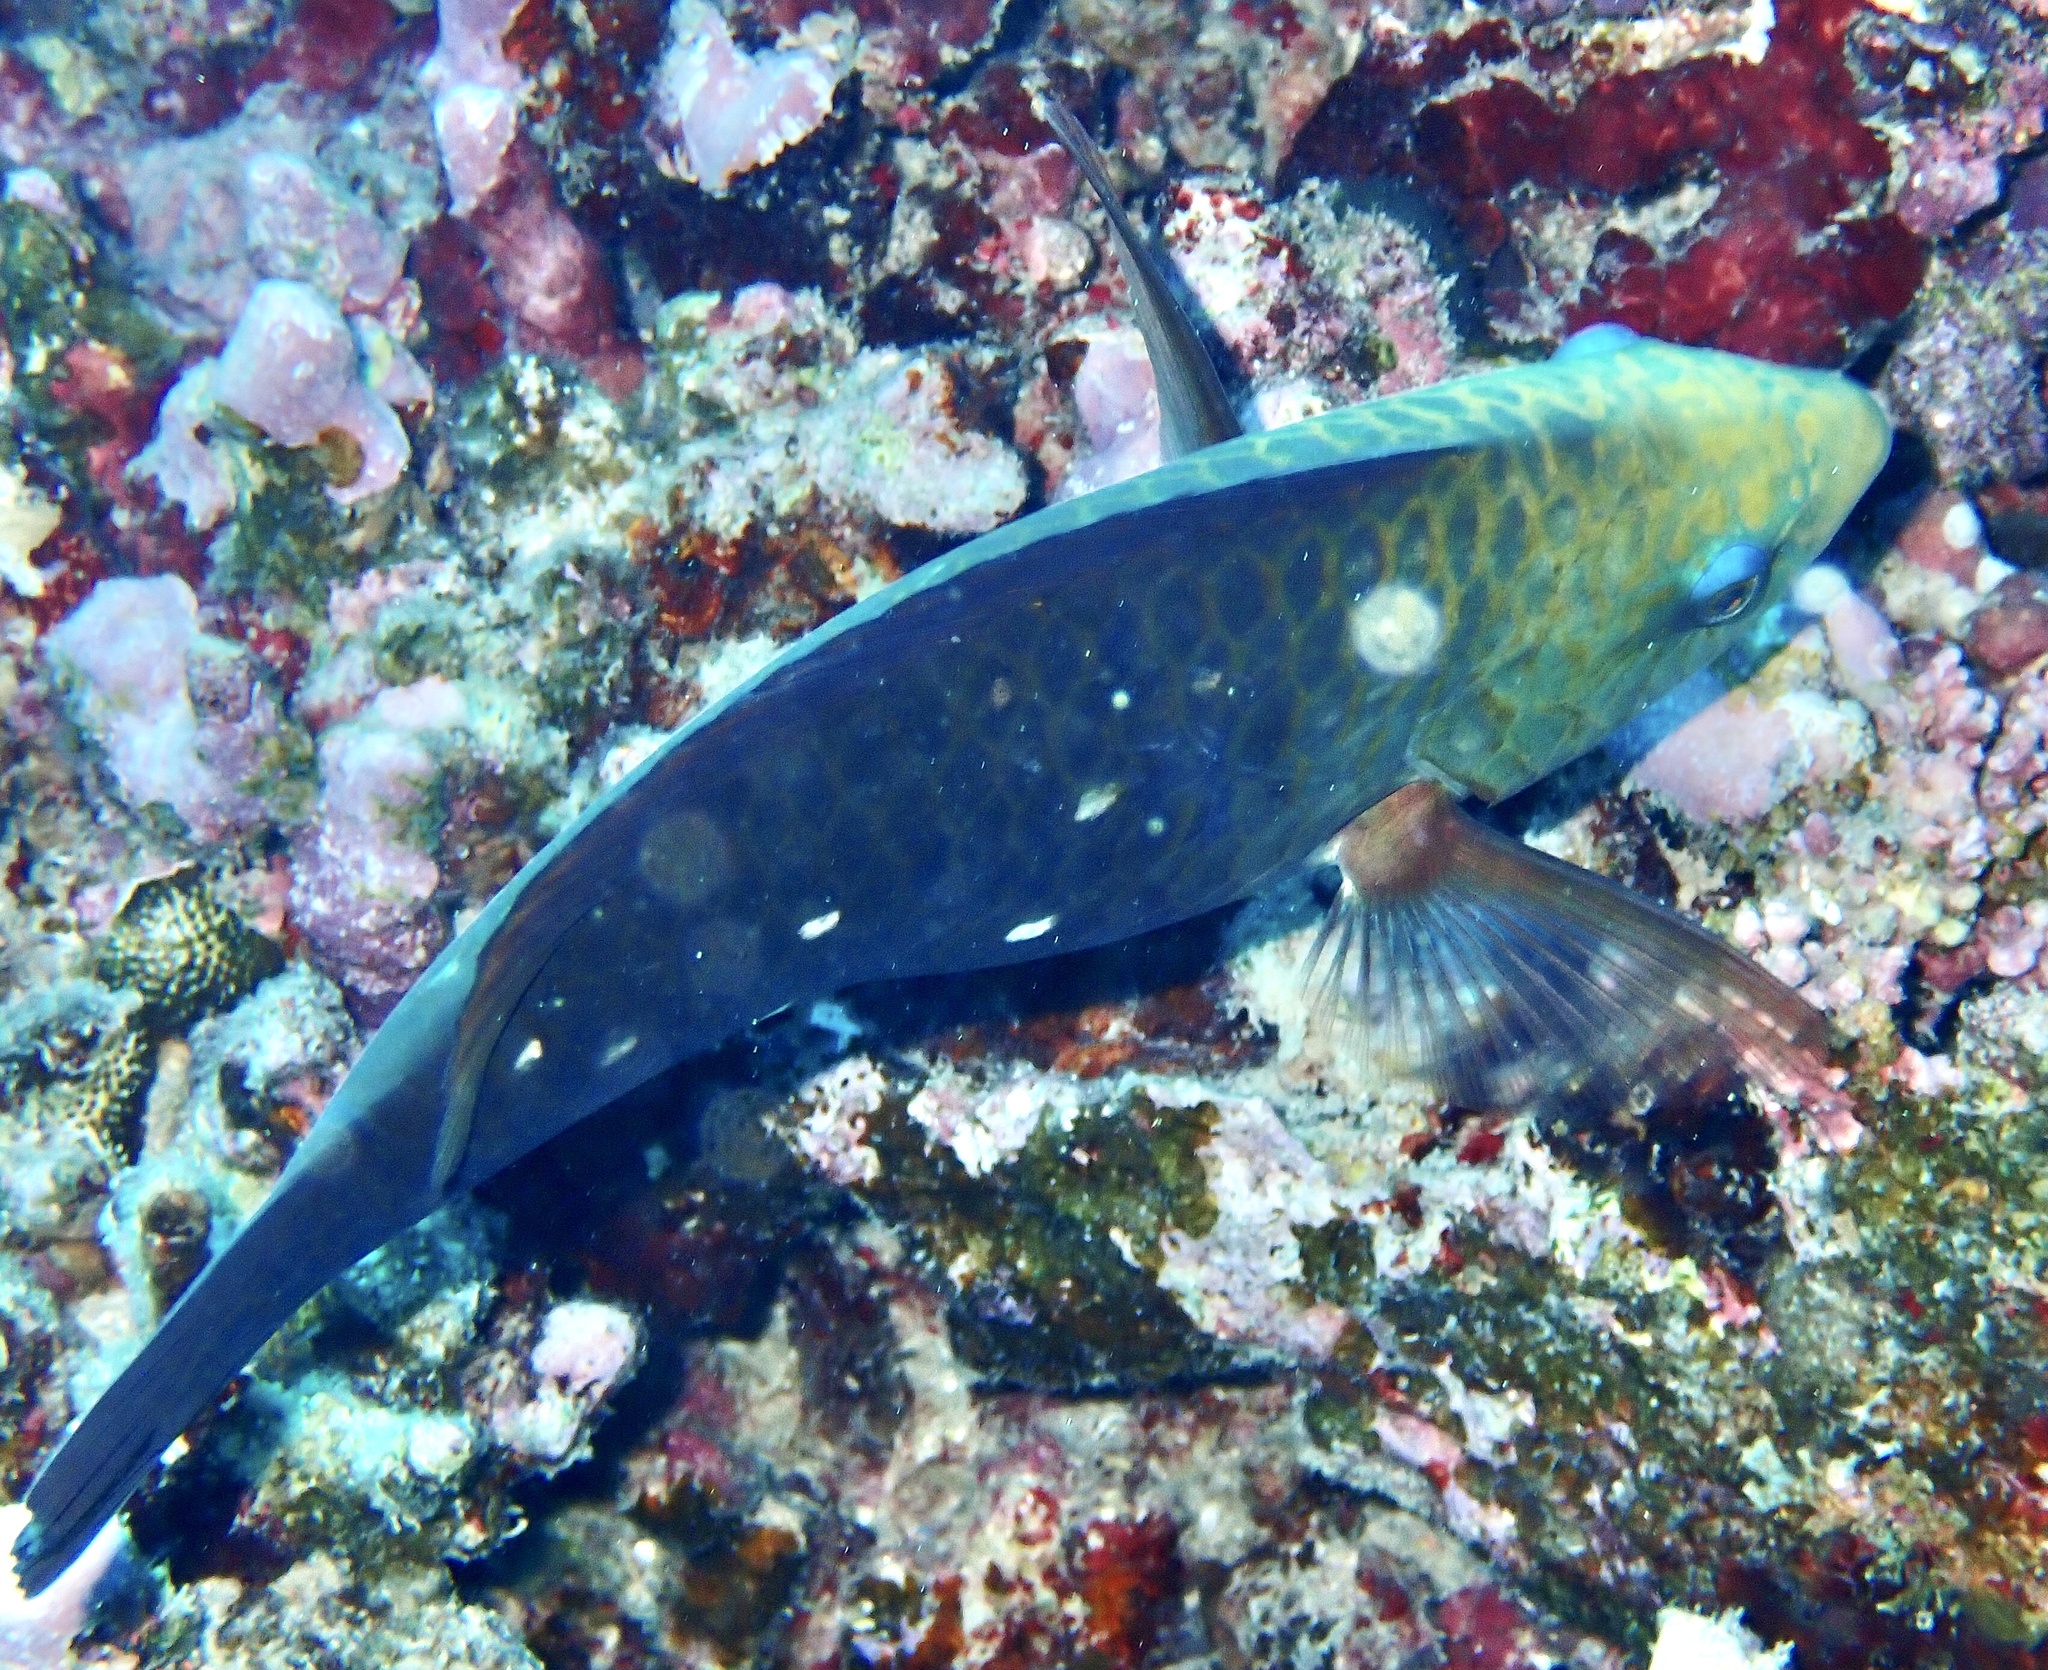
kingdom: Animalia
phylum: Chordata
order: Perciformes
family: Scaridae
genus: Chlorurus
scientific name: Chlorurus sordidus
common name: Bullethead parrotfish
